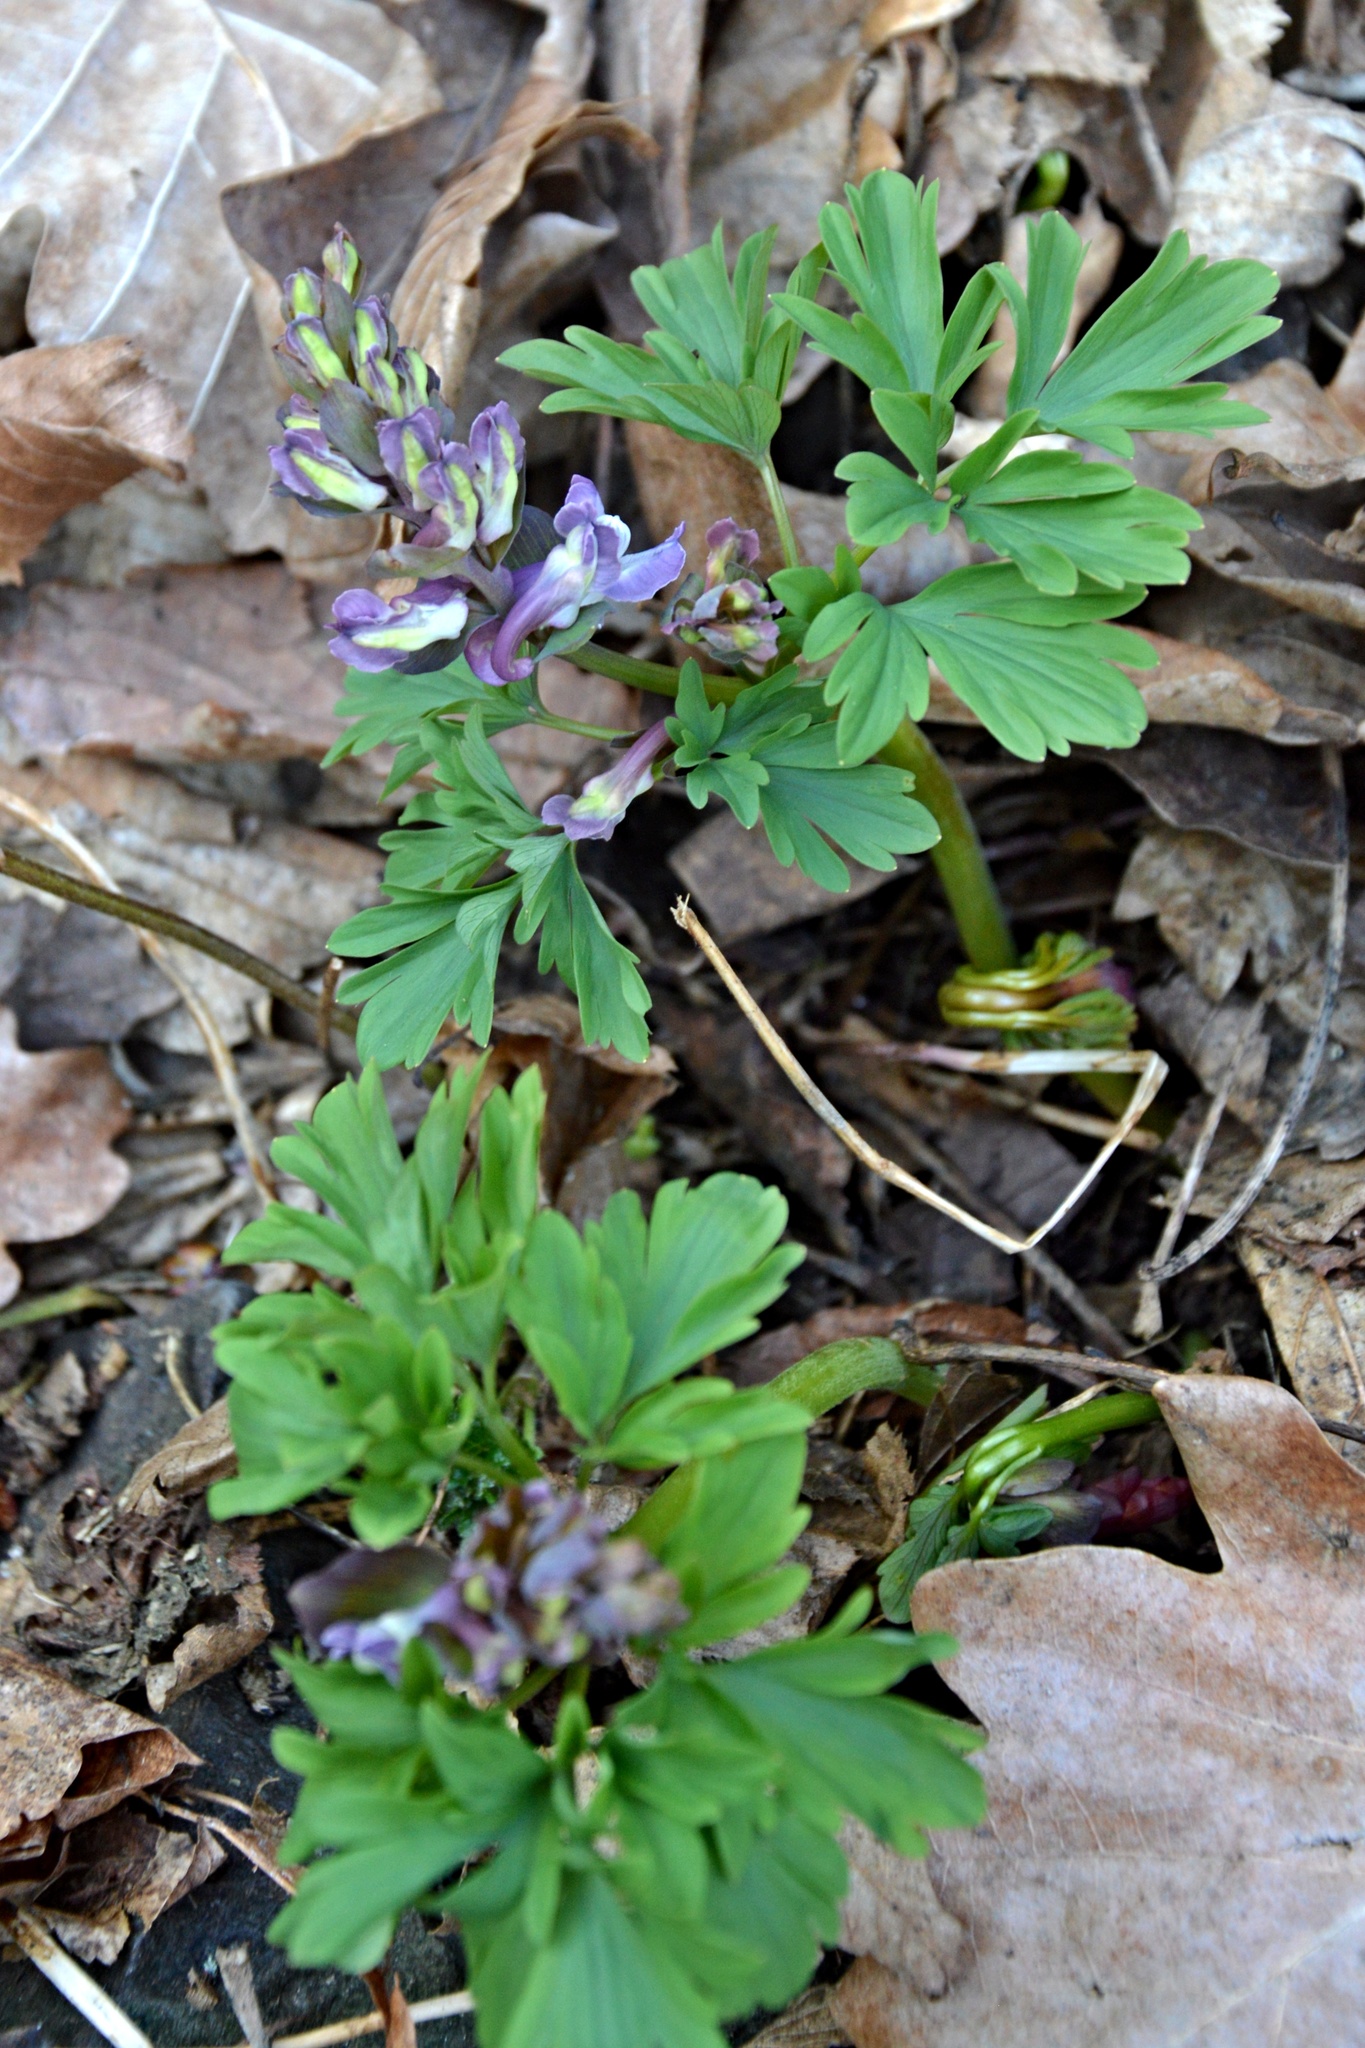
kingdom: Plantae
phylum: Tracheophyta
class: Magnoliopsida
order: Ranunculales
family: Papaveraceae
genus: Corydalis
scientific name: Corydalis cava
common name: Hollowroot
